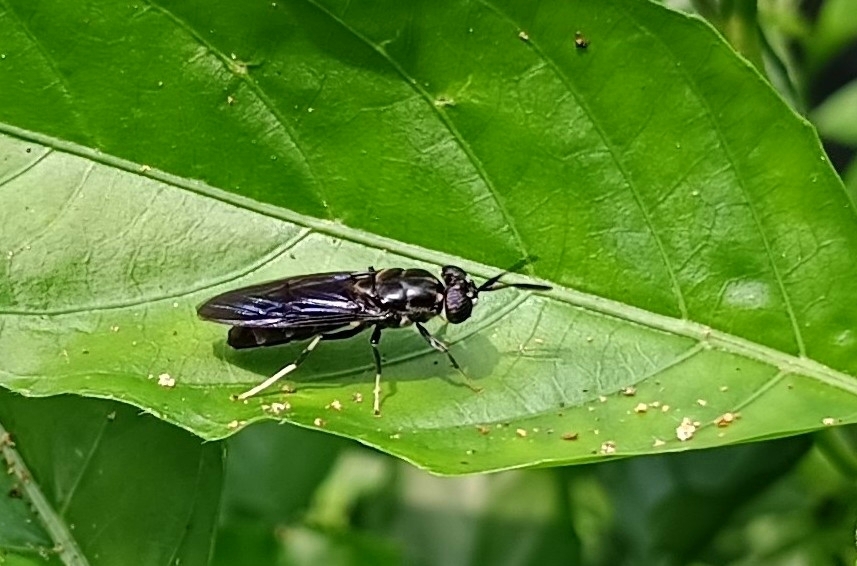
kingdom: Animalia
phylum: Arthropoda
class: Insecta
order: Diptera
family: Stratiomyidae
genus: Hermetia
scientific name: Hermetia illucens
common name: Black soldier fly
